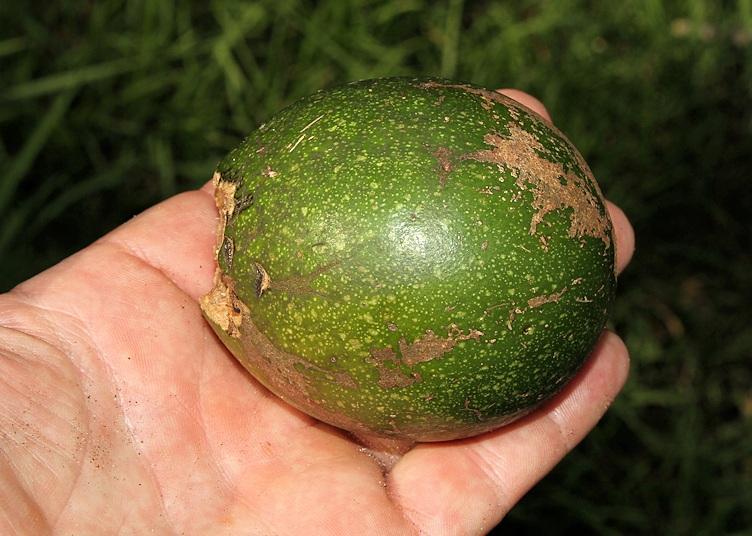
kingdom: Plantae
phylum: Tracheophyta
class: Magnoliopsida
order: Gentianales
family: Rubiaceae
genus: Rothmannia
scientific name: Rothmannia fischeri
